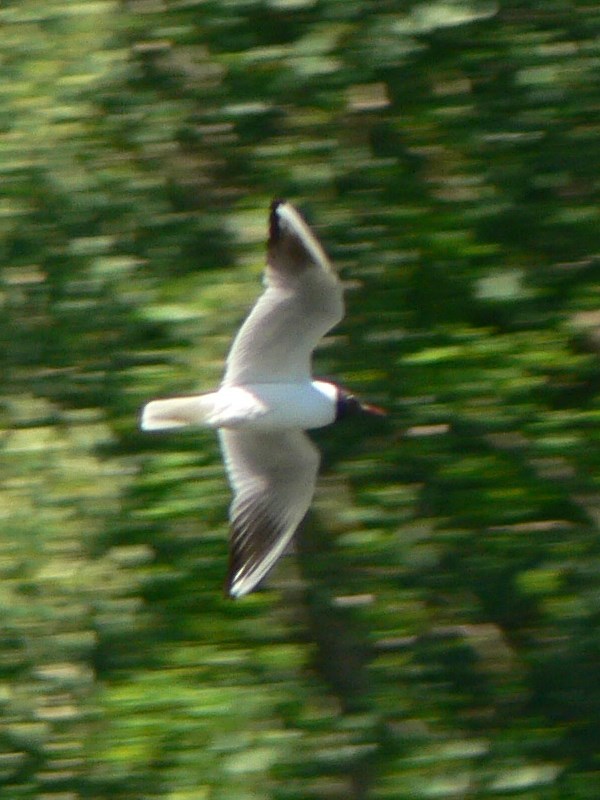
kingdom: Animalia
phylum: Chordata
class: Aves
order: Charadriiformes
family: Laridae
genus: Chroicocephalus
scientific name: Chroicocephalus ridibundus
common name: Black-headed gull
